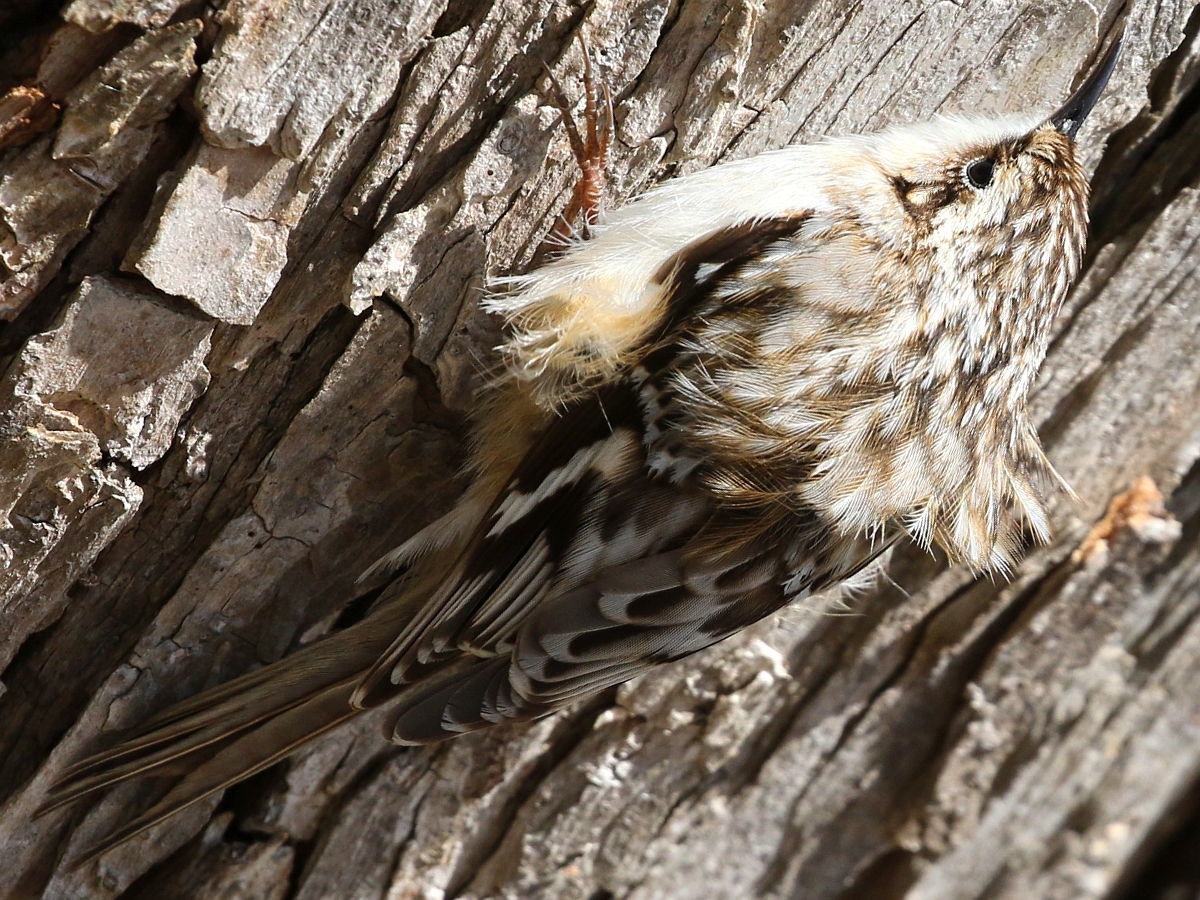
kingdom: Animalia
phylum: Chordata
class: Aves
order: Passeriformes
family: Certhiidae
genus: Certhia
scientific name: Certhia americana
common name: Brown creeper
